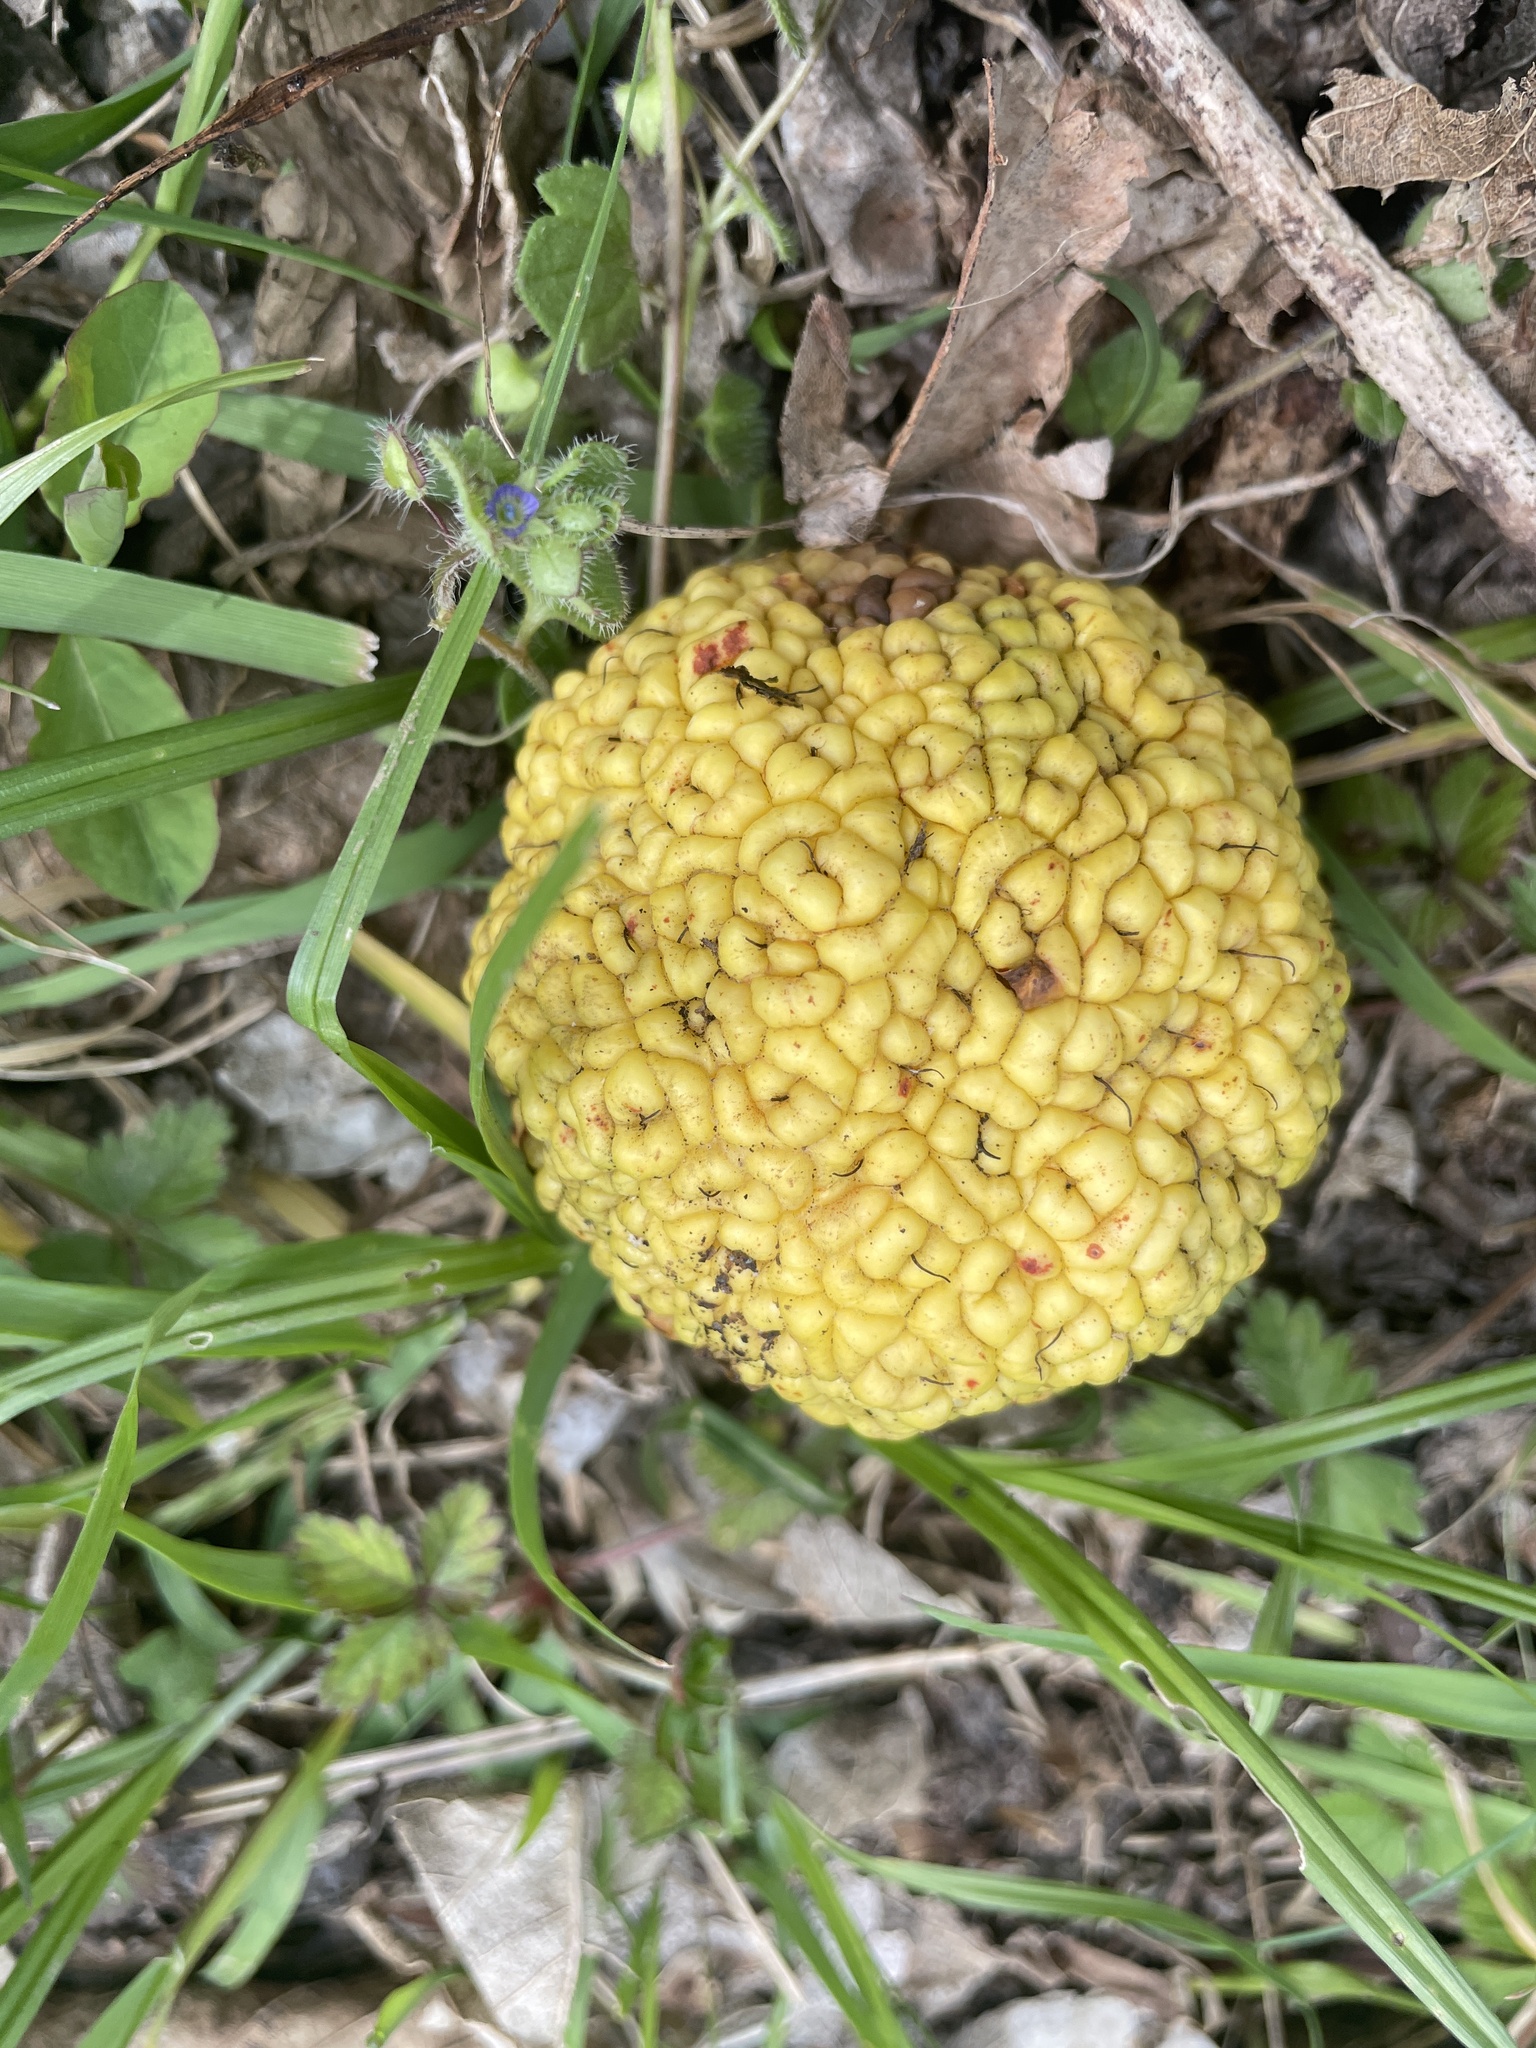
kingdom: Plantae
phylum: Tracheophyta
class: Magnoliopsida
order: Rosales
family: Moraceae
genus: Maclura
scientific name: Maclura pomifera
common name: Osage-orange
